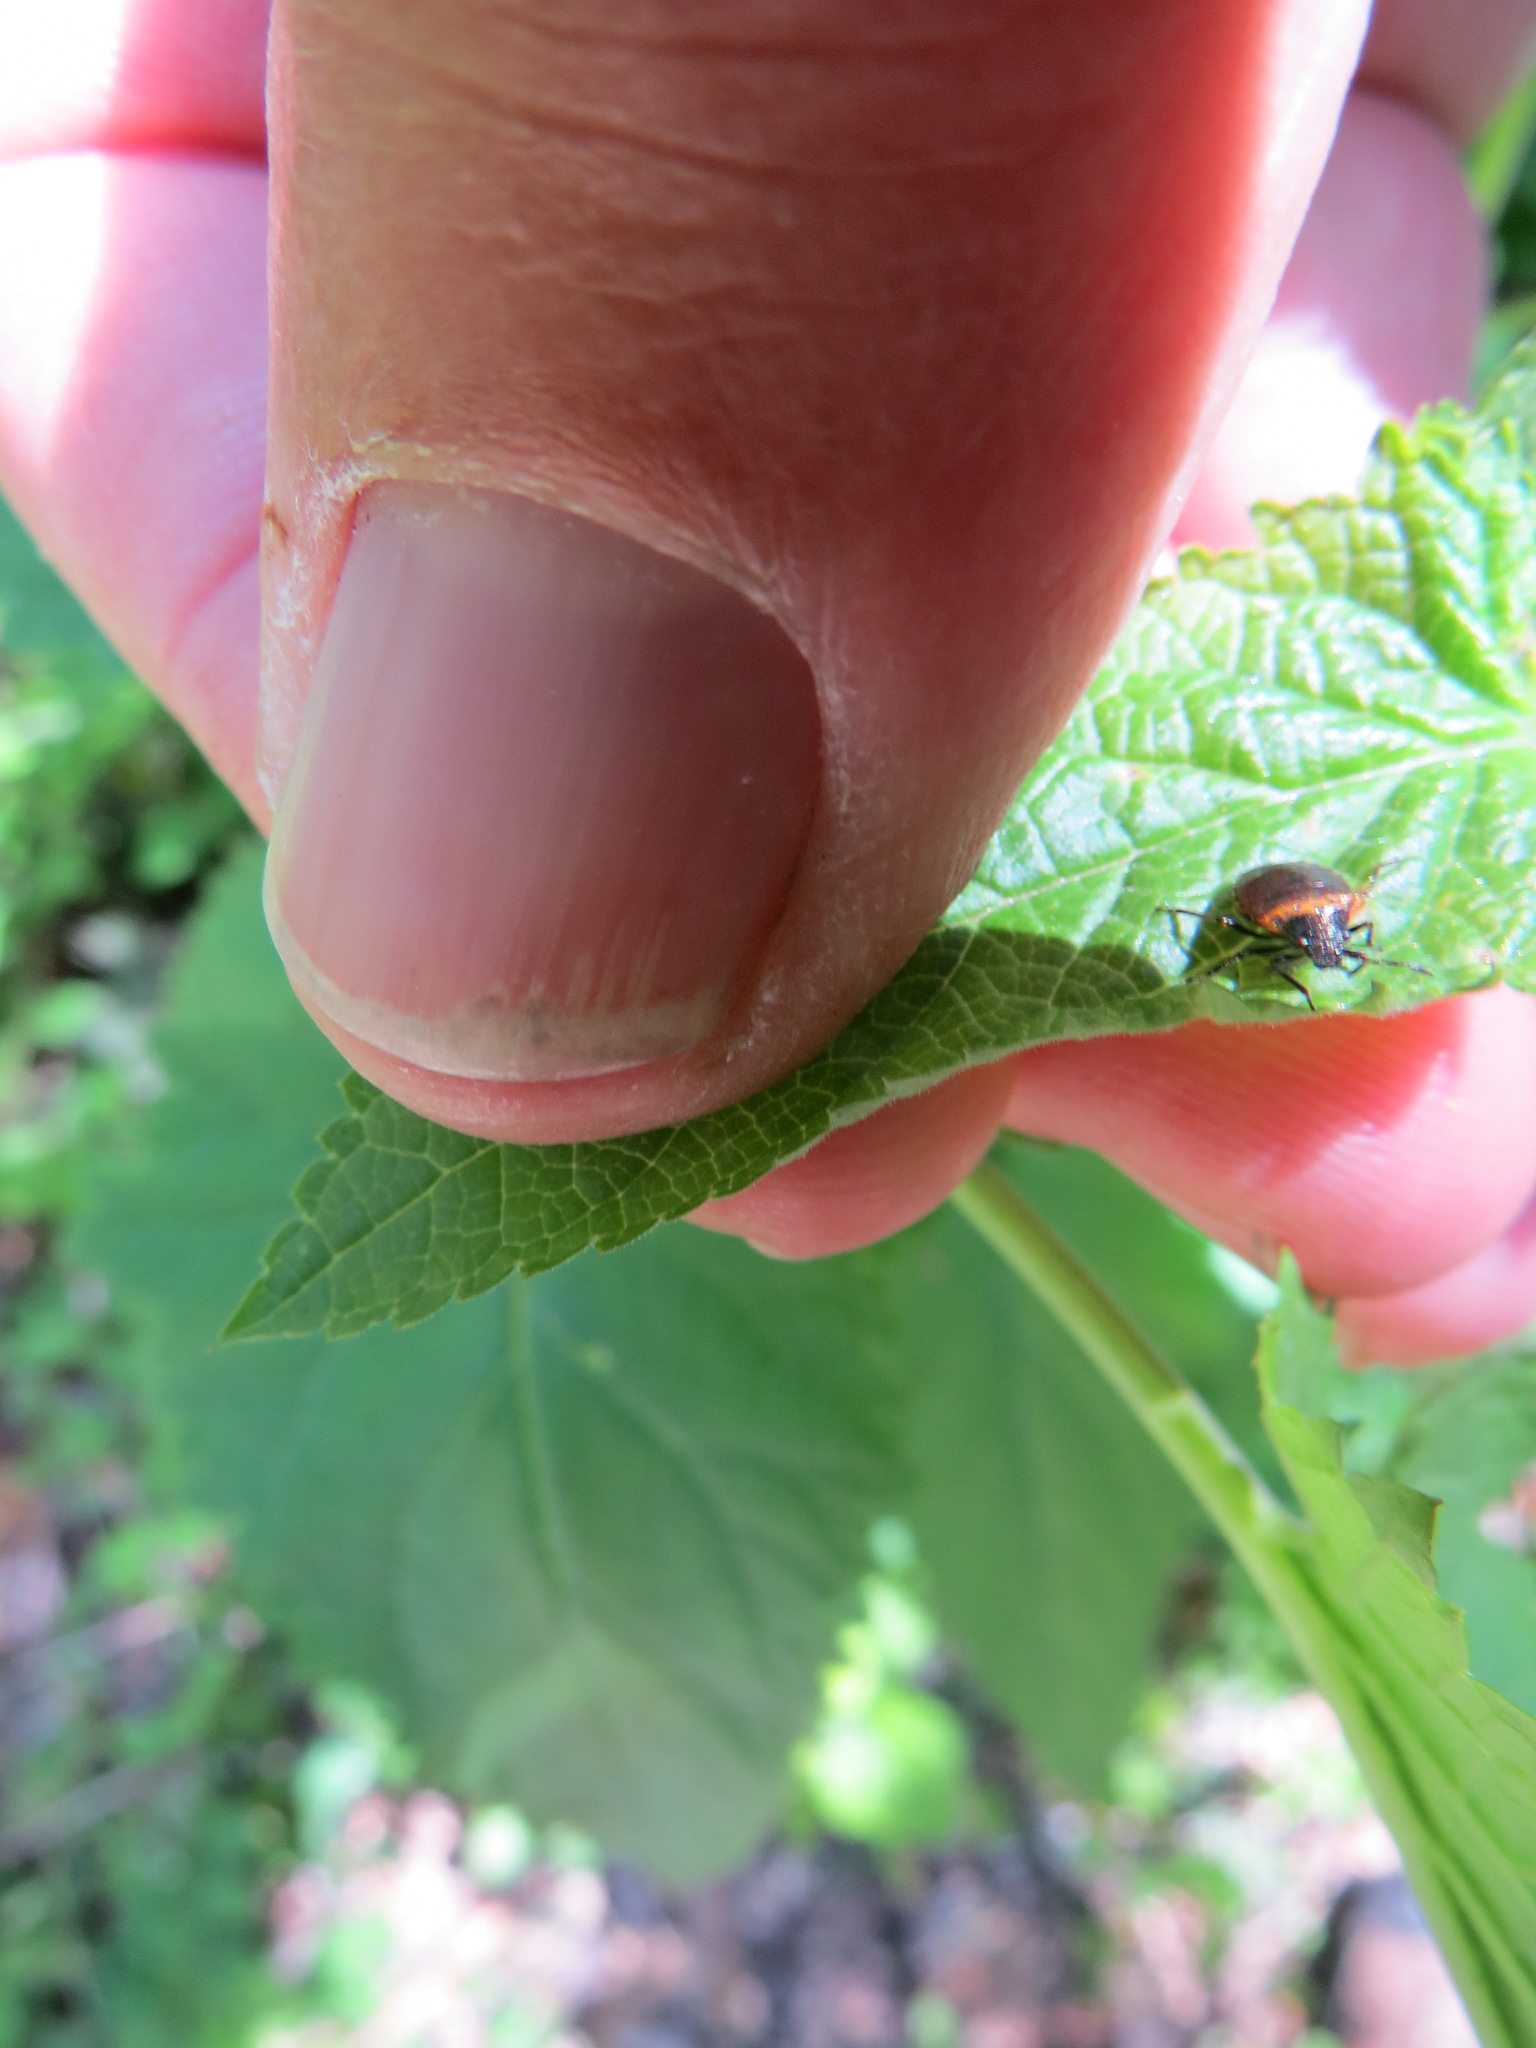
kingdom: Animalia
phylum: Arthropoda
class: Insecta
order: Hemiptera
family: Pentatomidae
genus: Cosmopepla
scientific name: Cosmopepla uhleri
